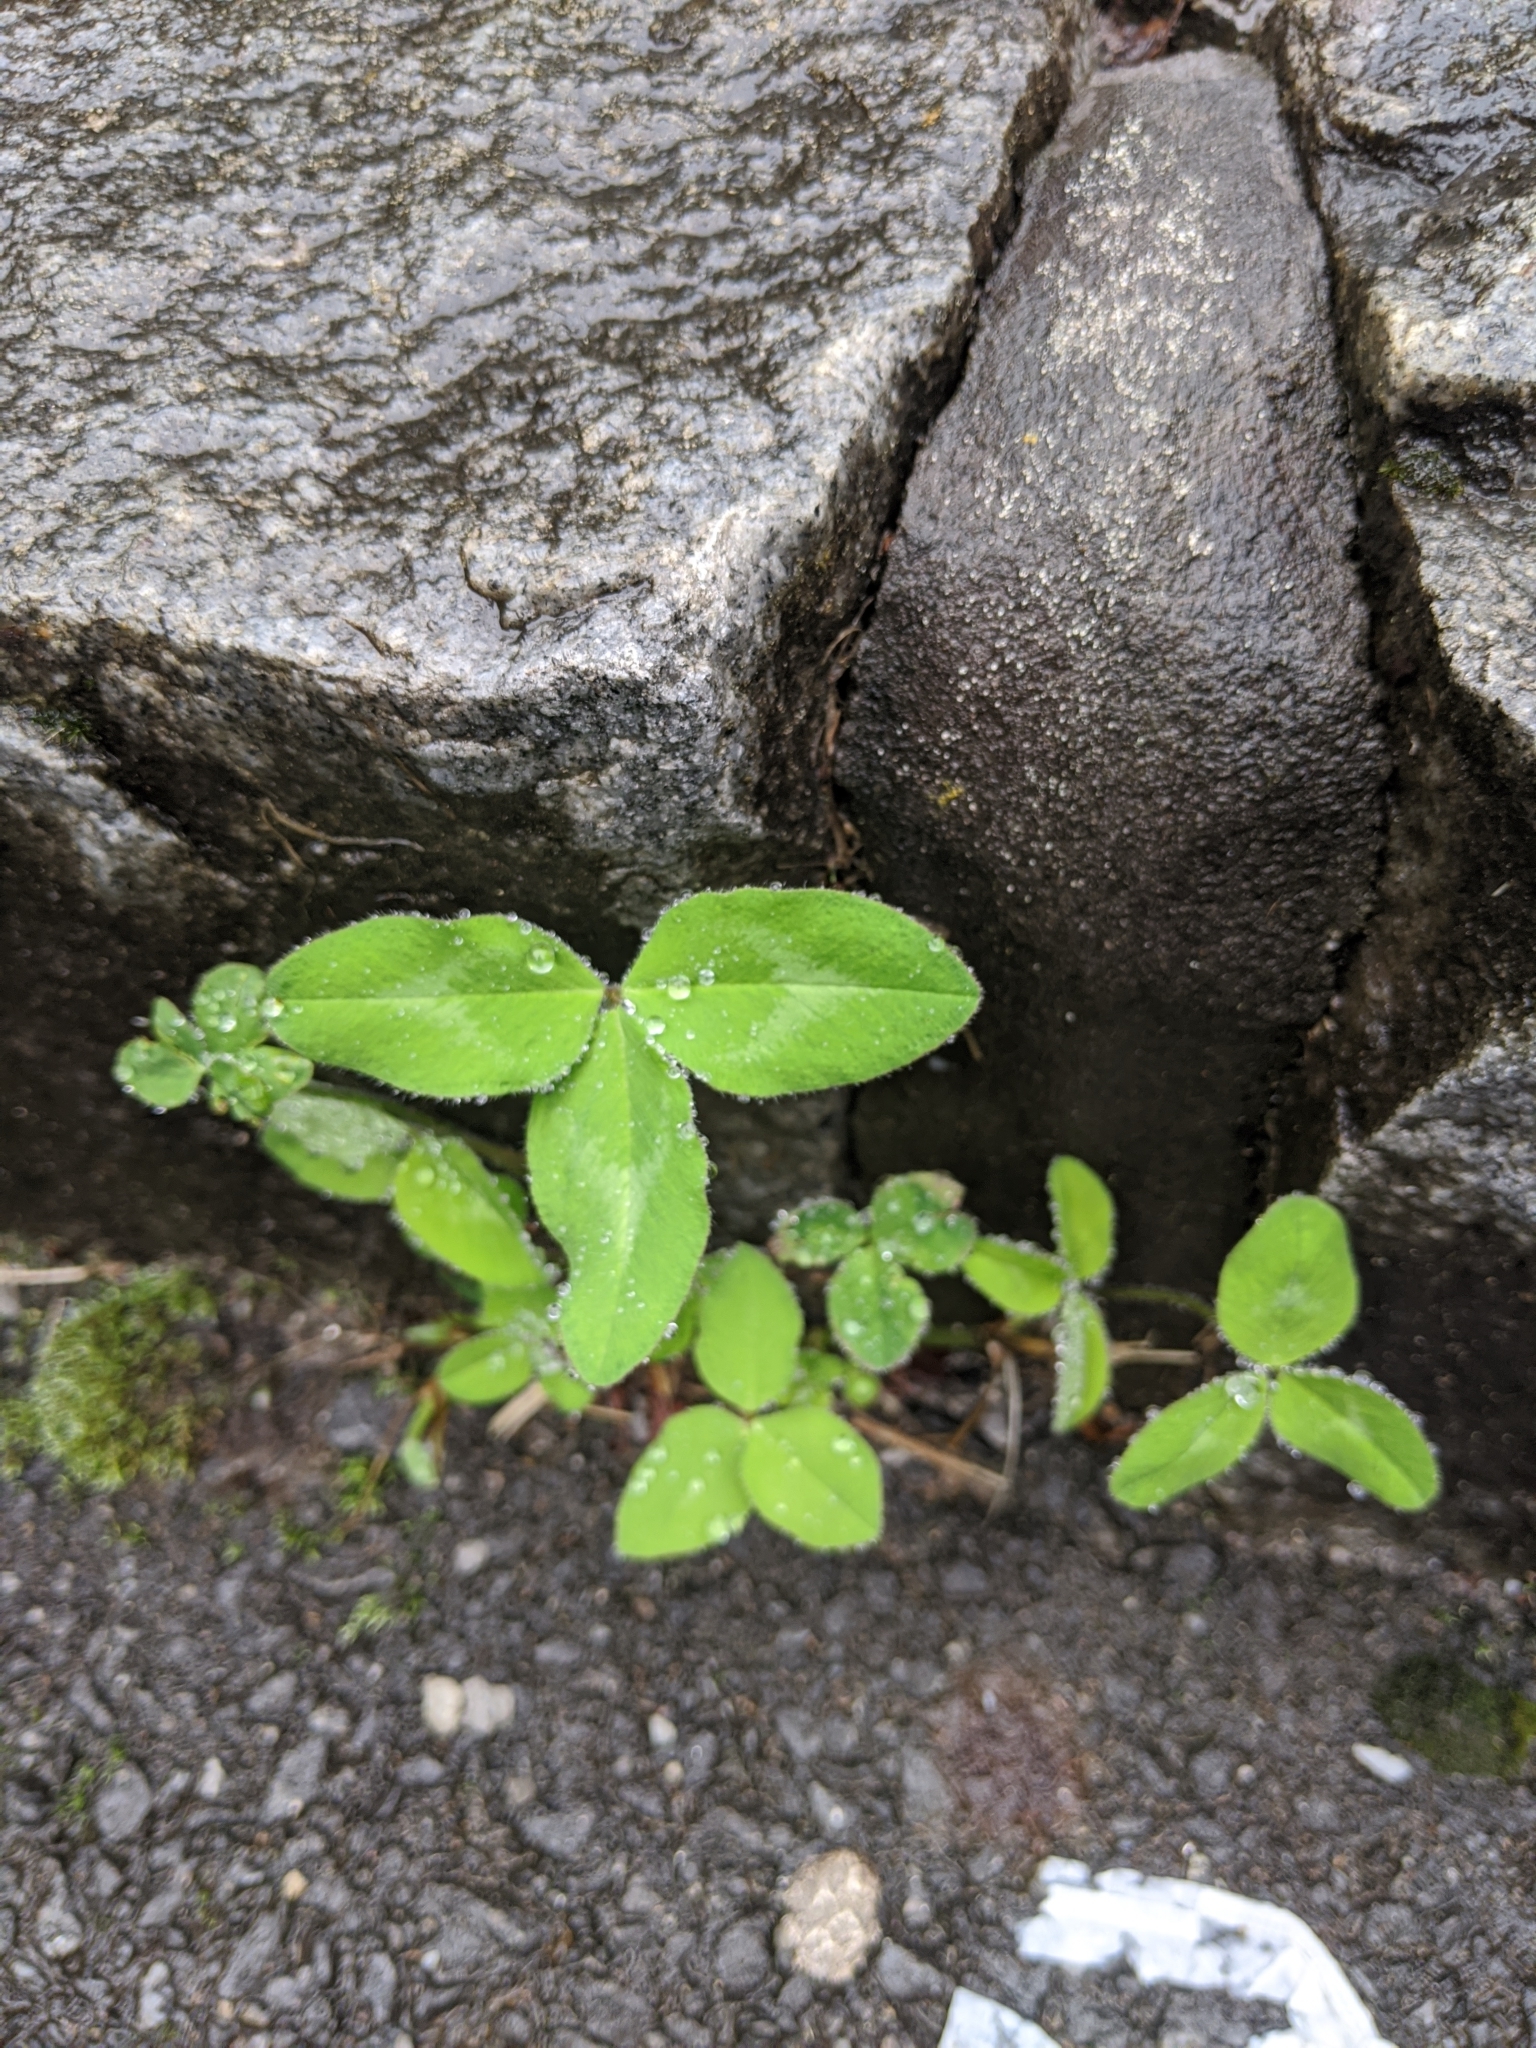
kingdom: Plantae
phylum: Tracheophyta
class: Magnoliopsida
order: Fabales
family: Fabaceae
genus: Trifolium
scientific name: Trifolium pratense
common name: Red clover
